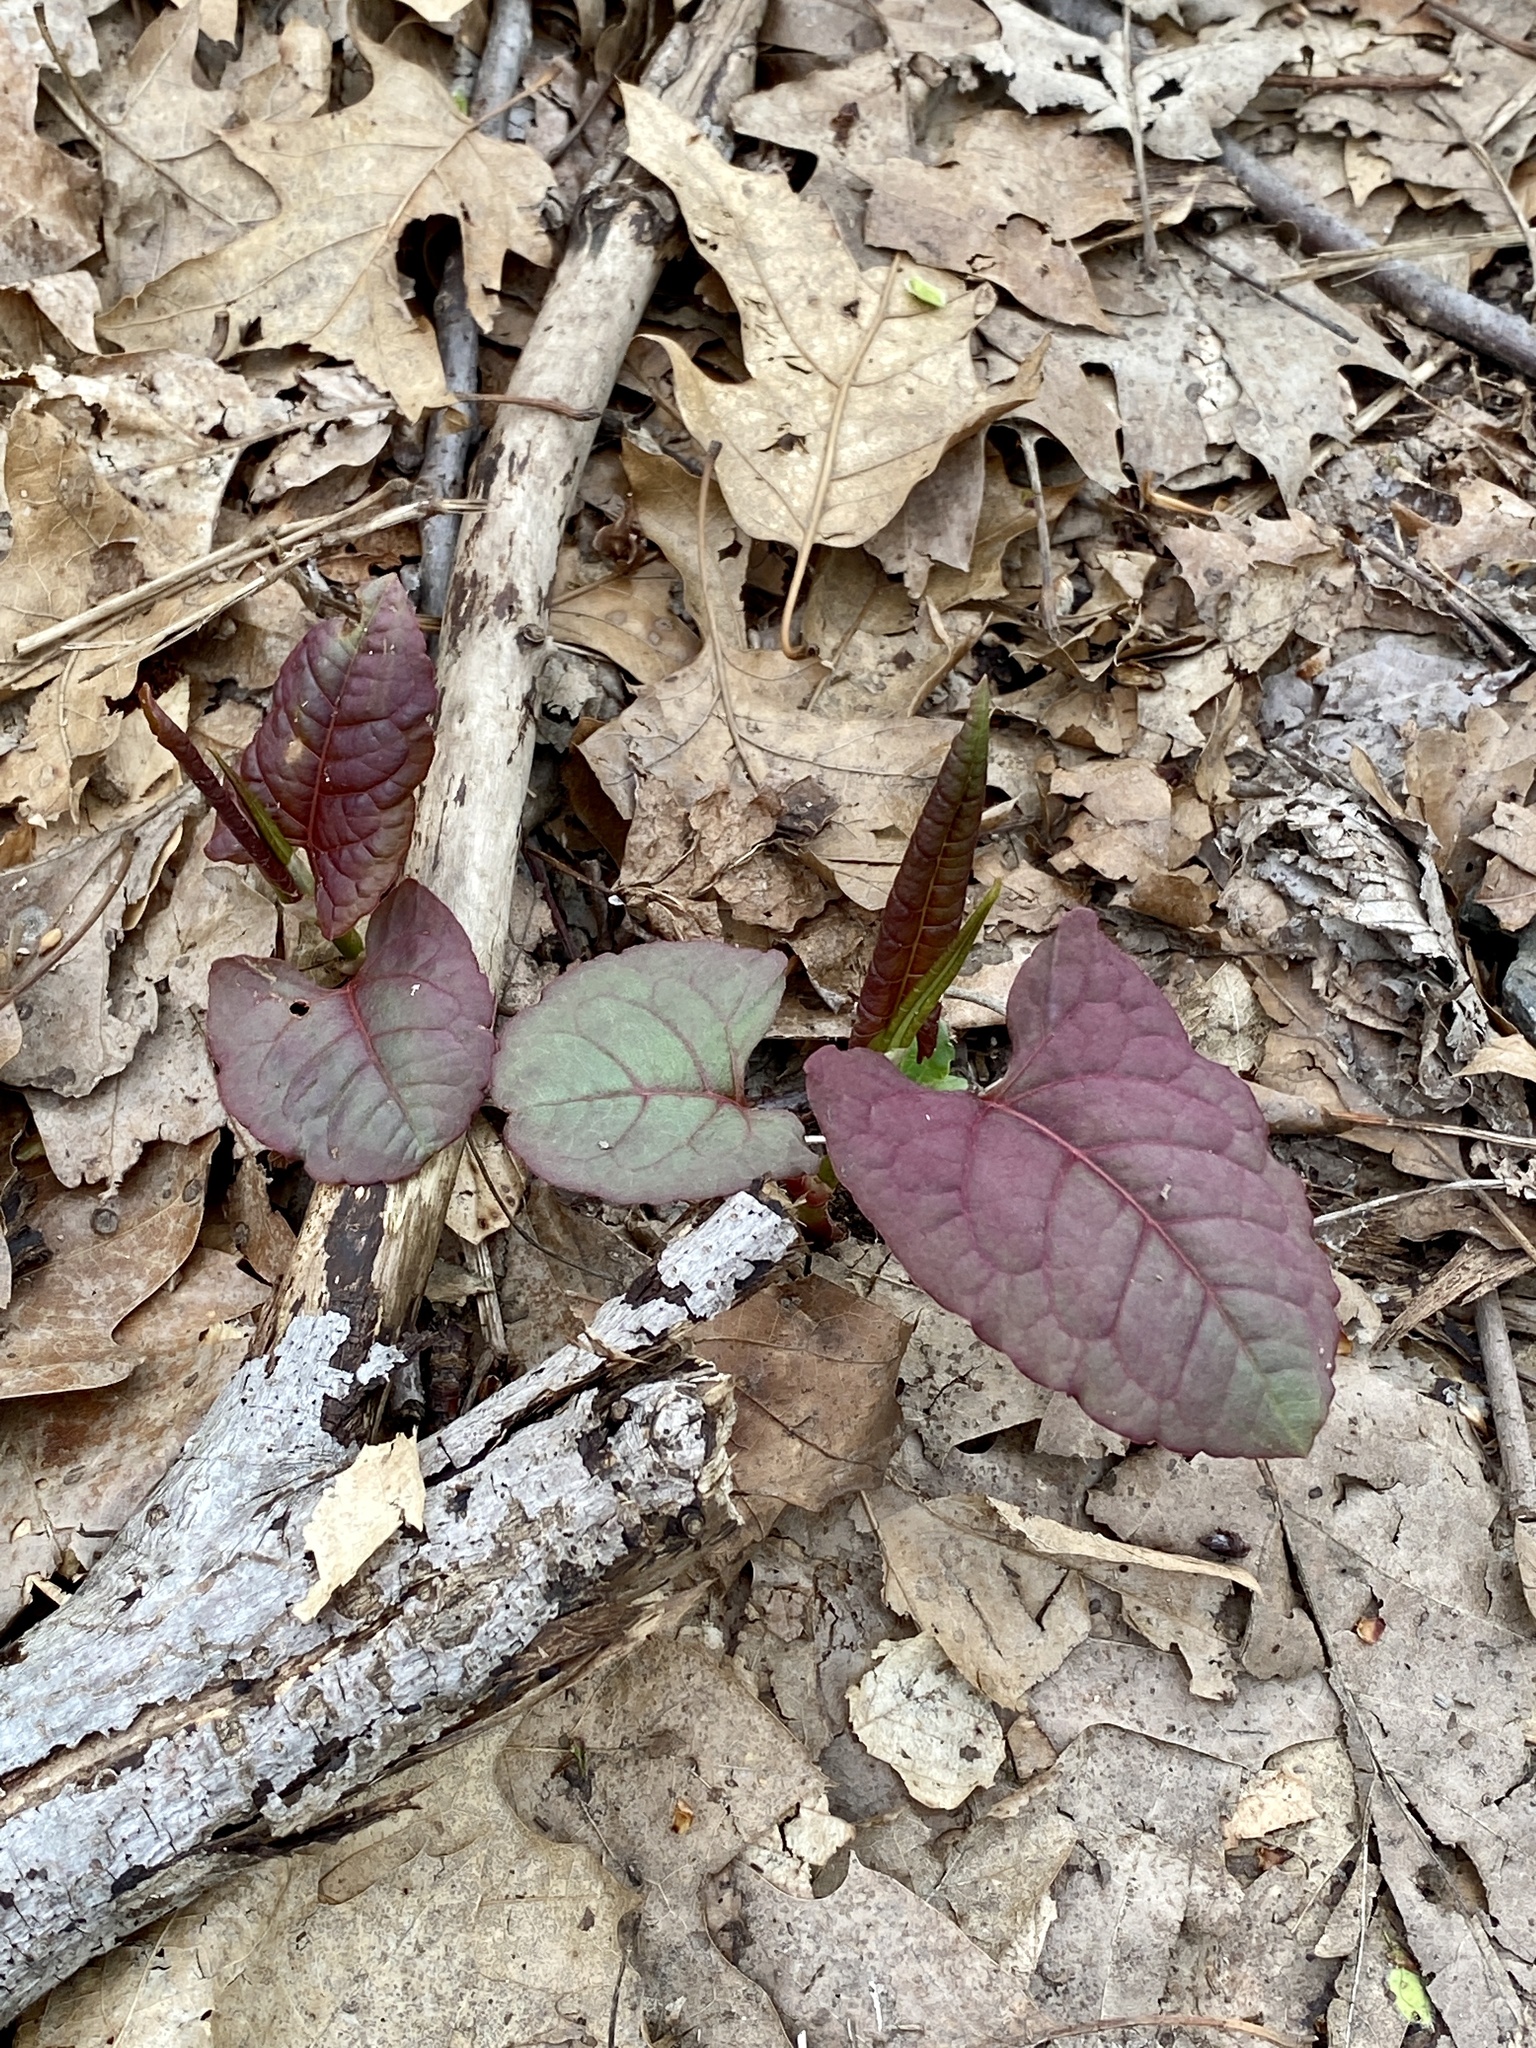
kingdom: Plantae
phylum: Tracheophyta
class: Magnoliopsida
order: Caryophyllales
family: Polygonaceae
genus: Reynoutria
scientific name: Reynoutria japonica
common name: Japanese knotweed
